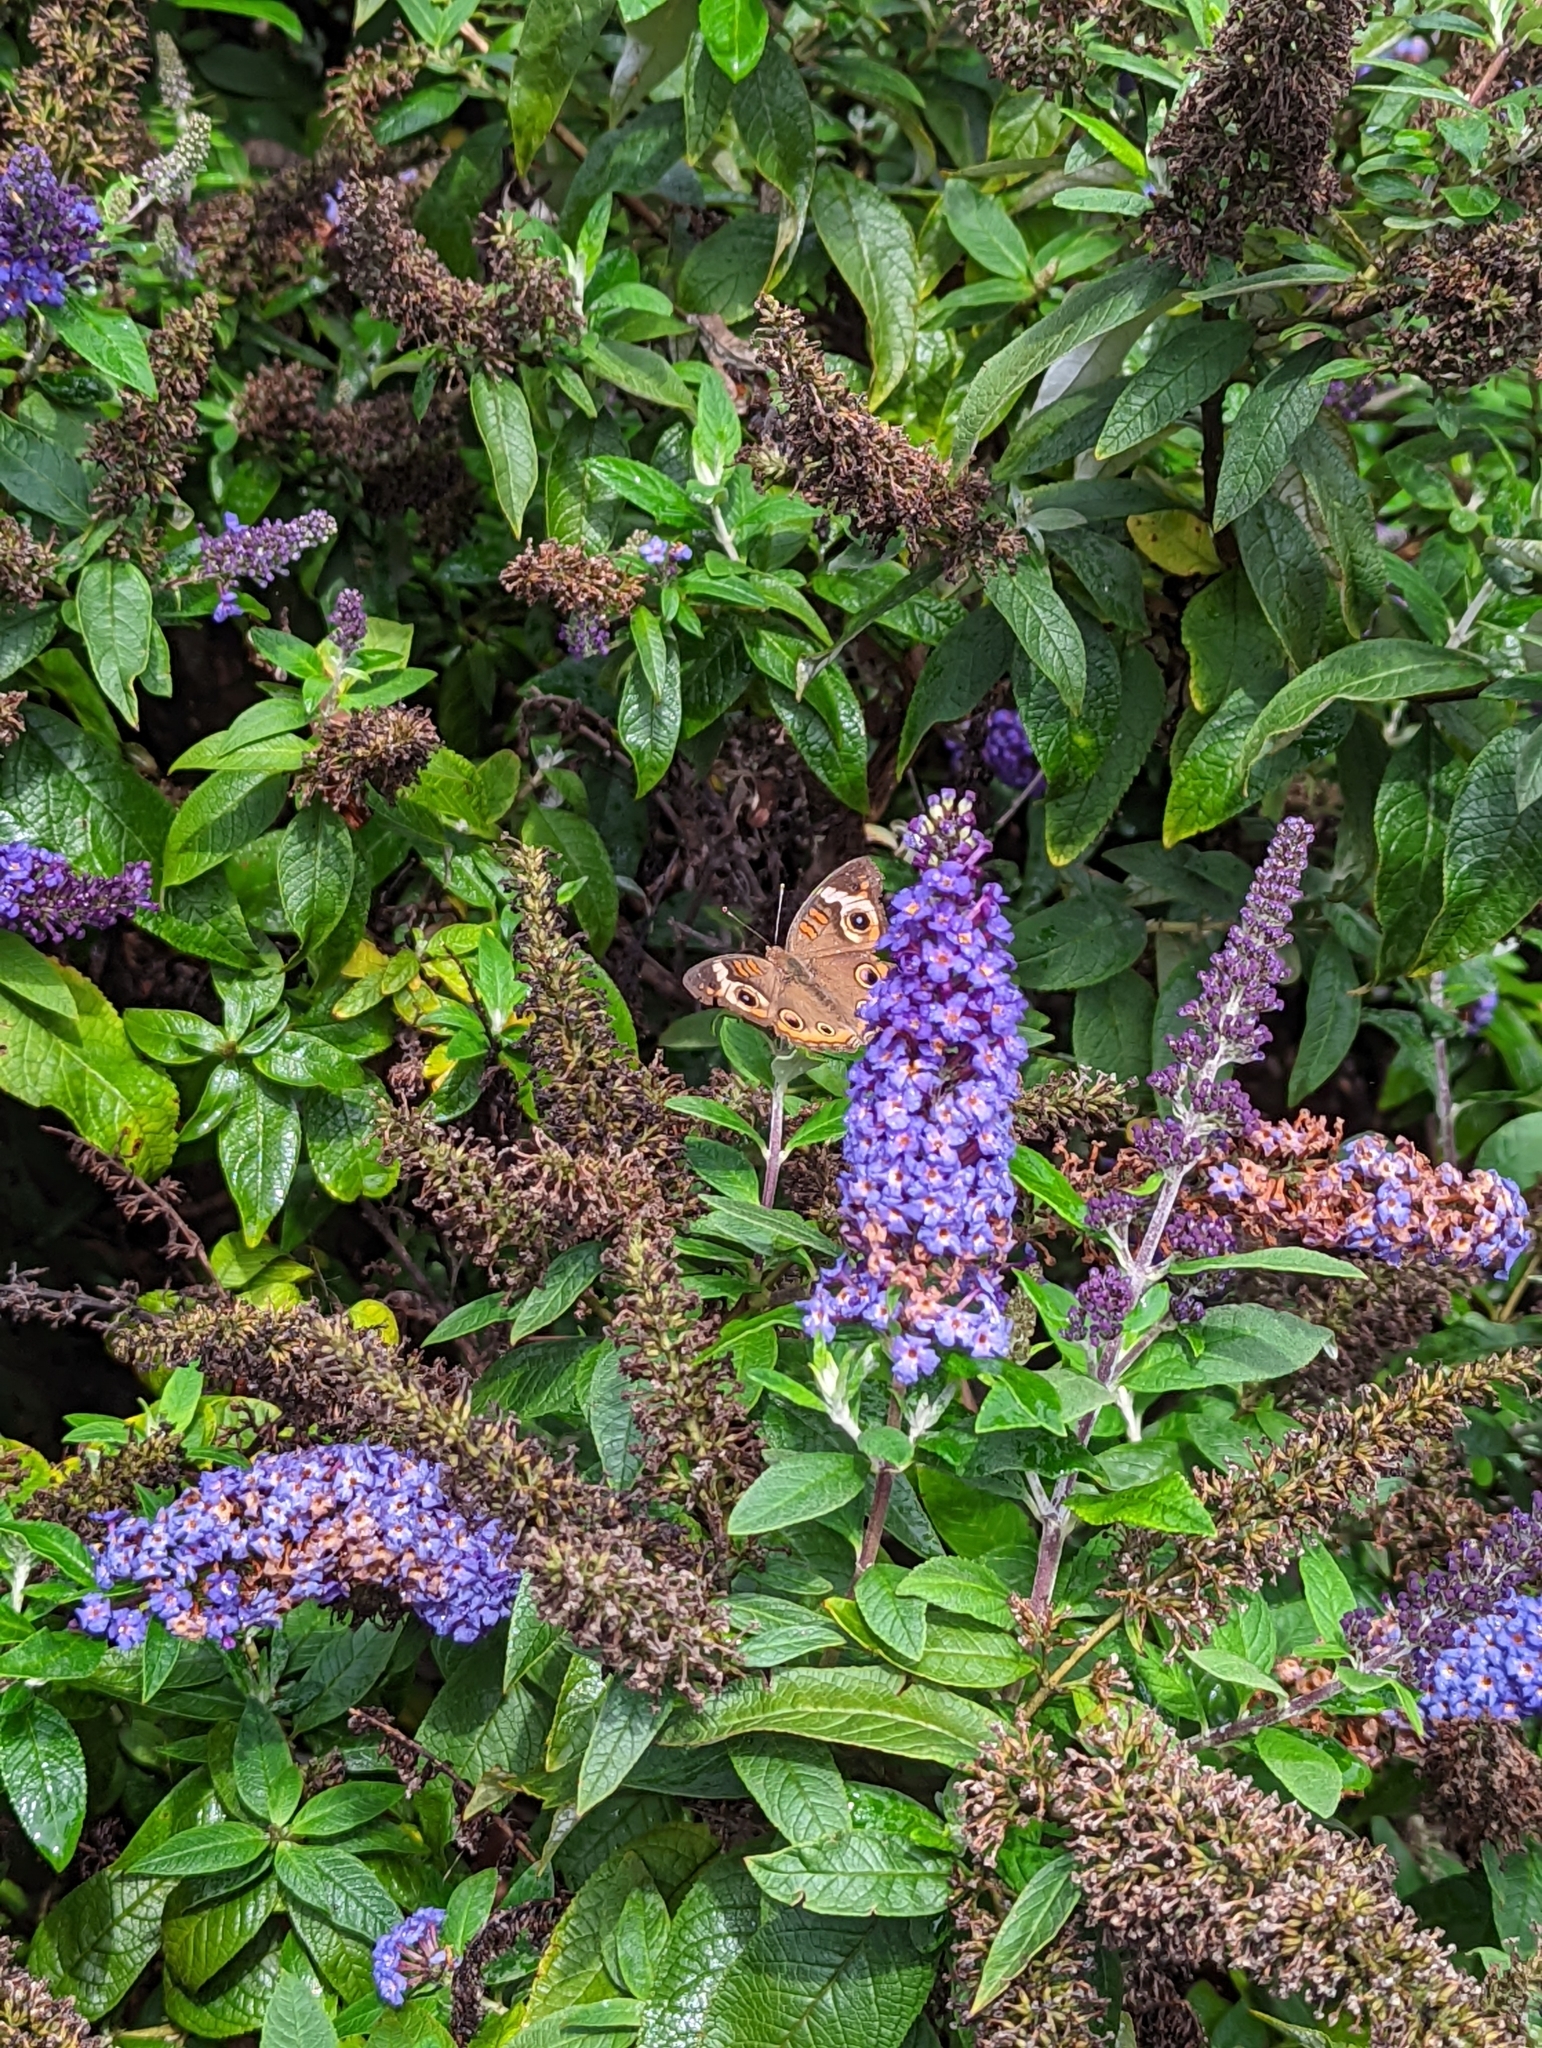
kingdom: Animalia
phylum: Arthropoda
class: Insecta
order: Lepidoptera
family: Nymphalidae
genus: Junonia
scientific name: Junonia coenia
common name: Common buckeye
